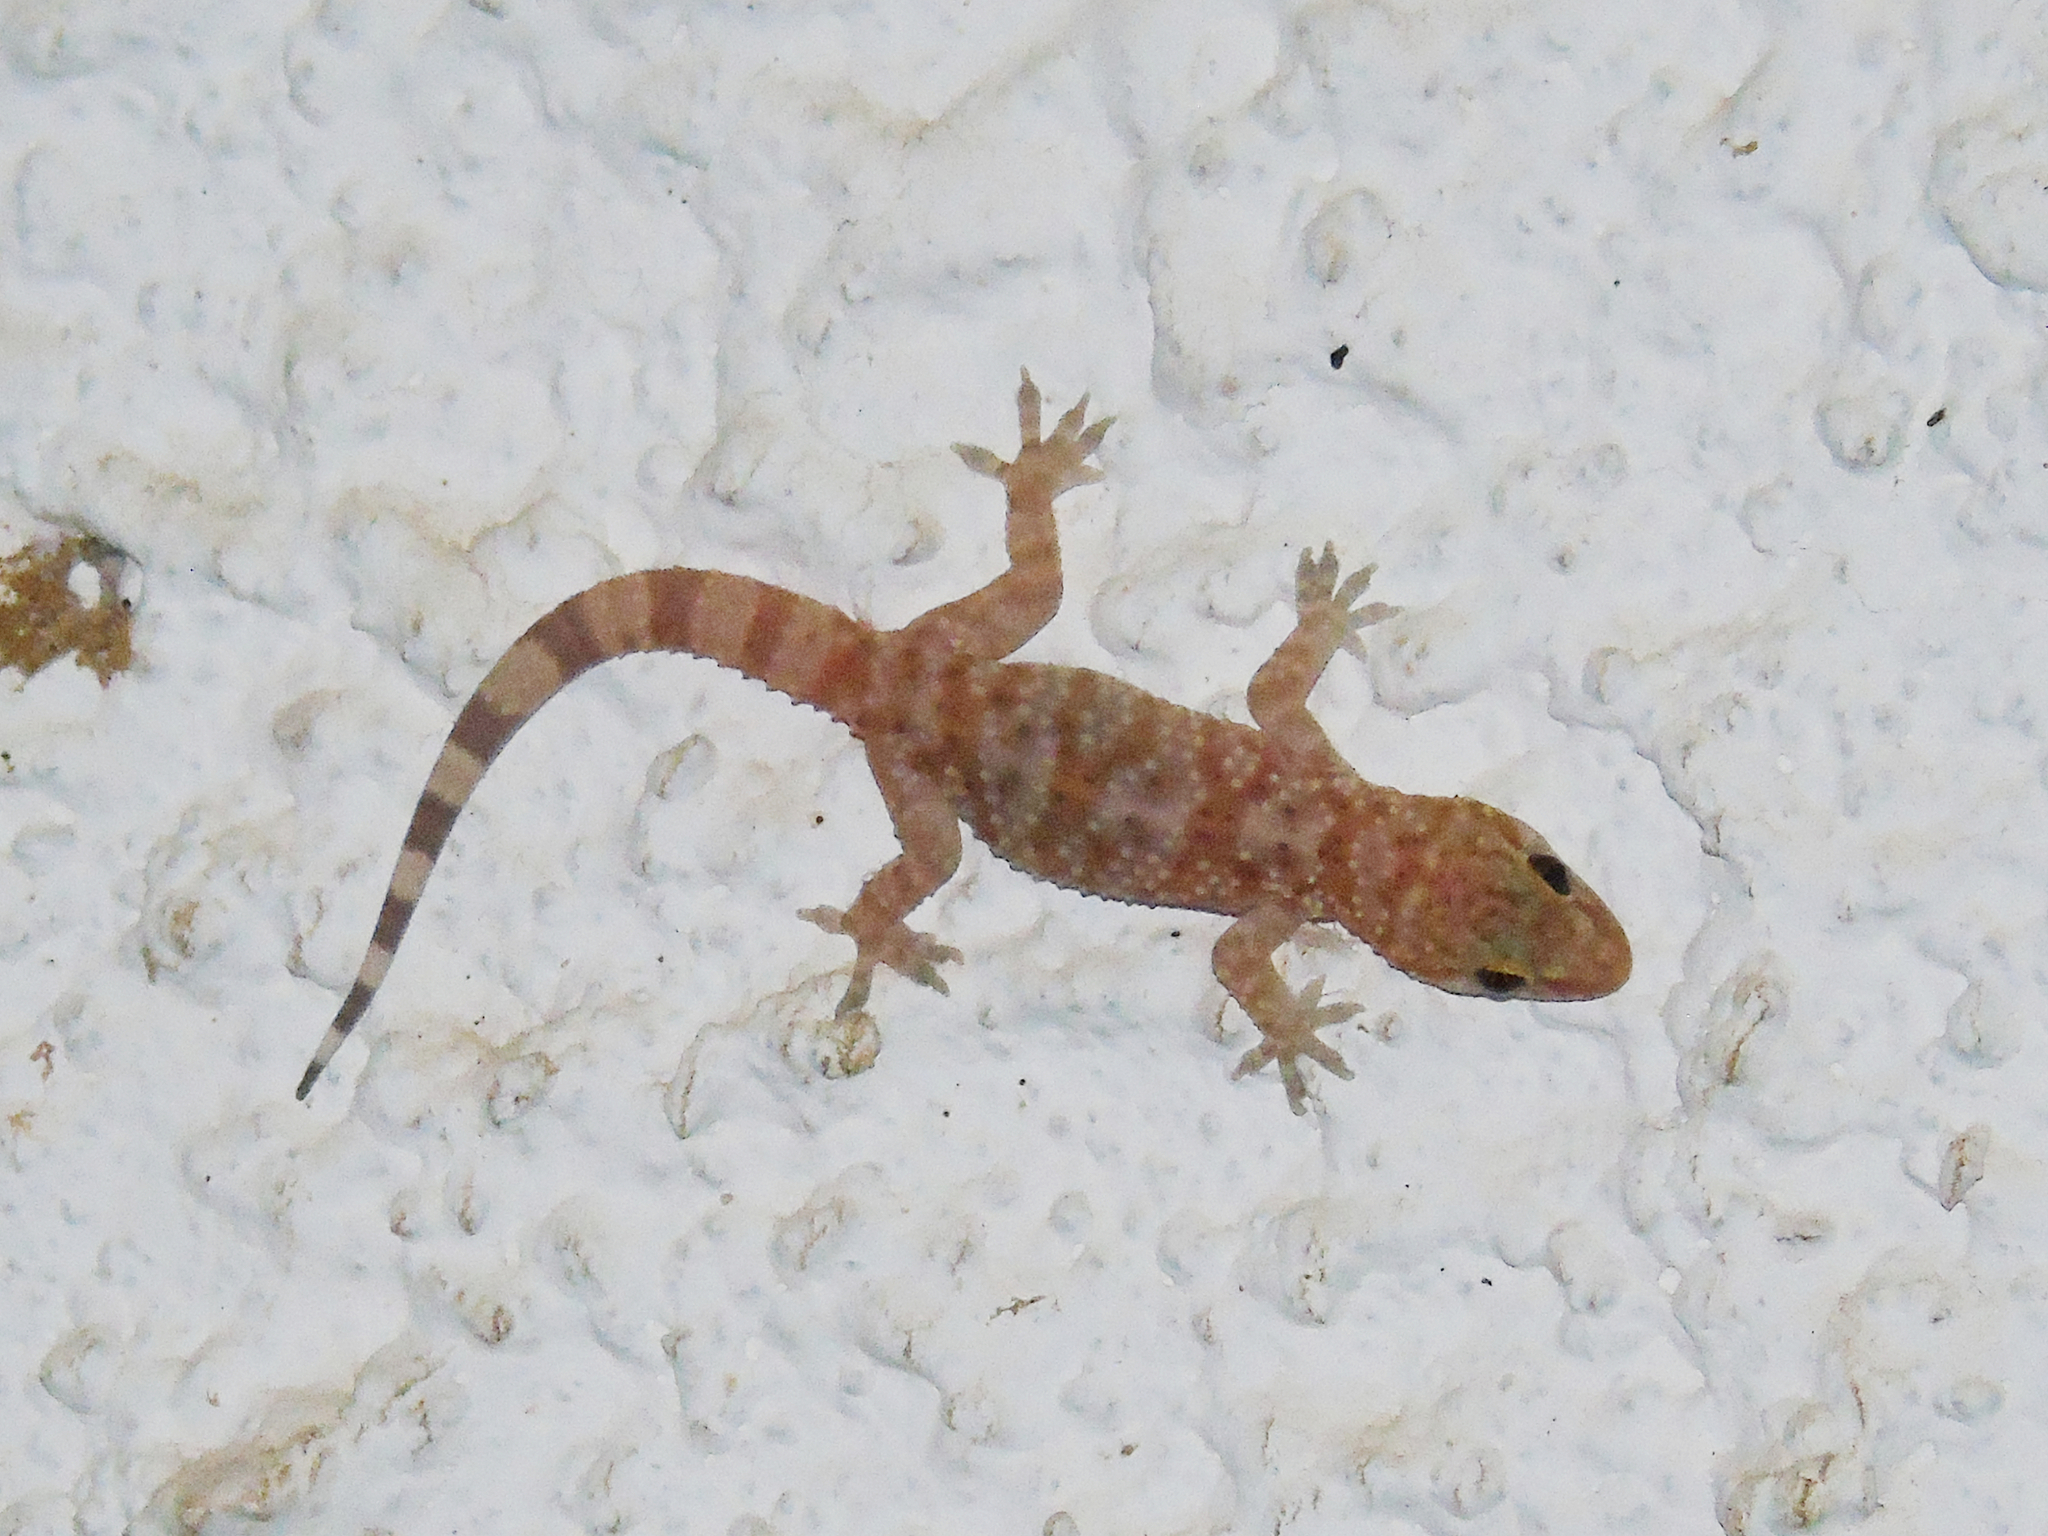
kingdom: Animalia
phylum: Chordata
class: Squamata
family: Gekkonidae
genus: Hemidactylus
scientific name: Hemidactylus turcicus
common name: Turkish gecko
